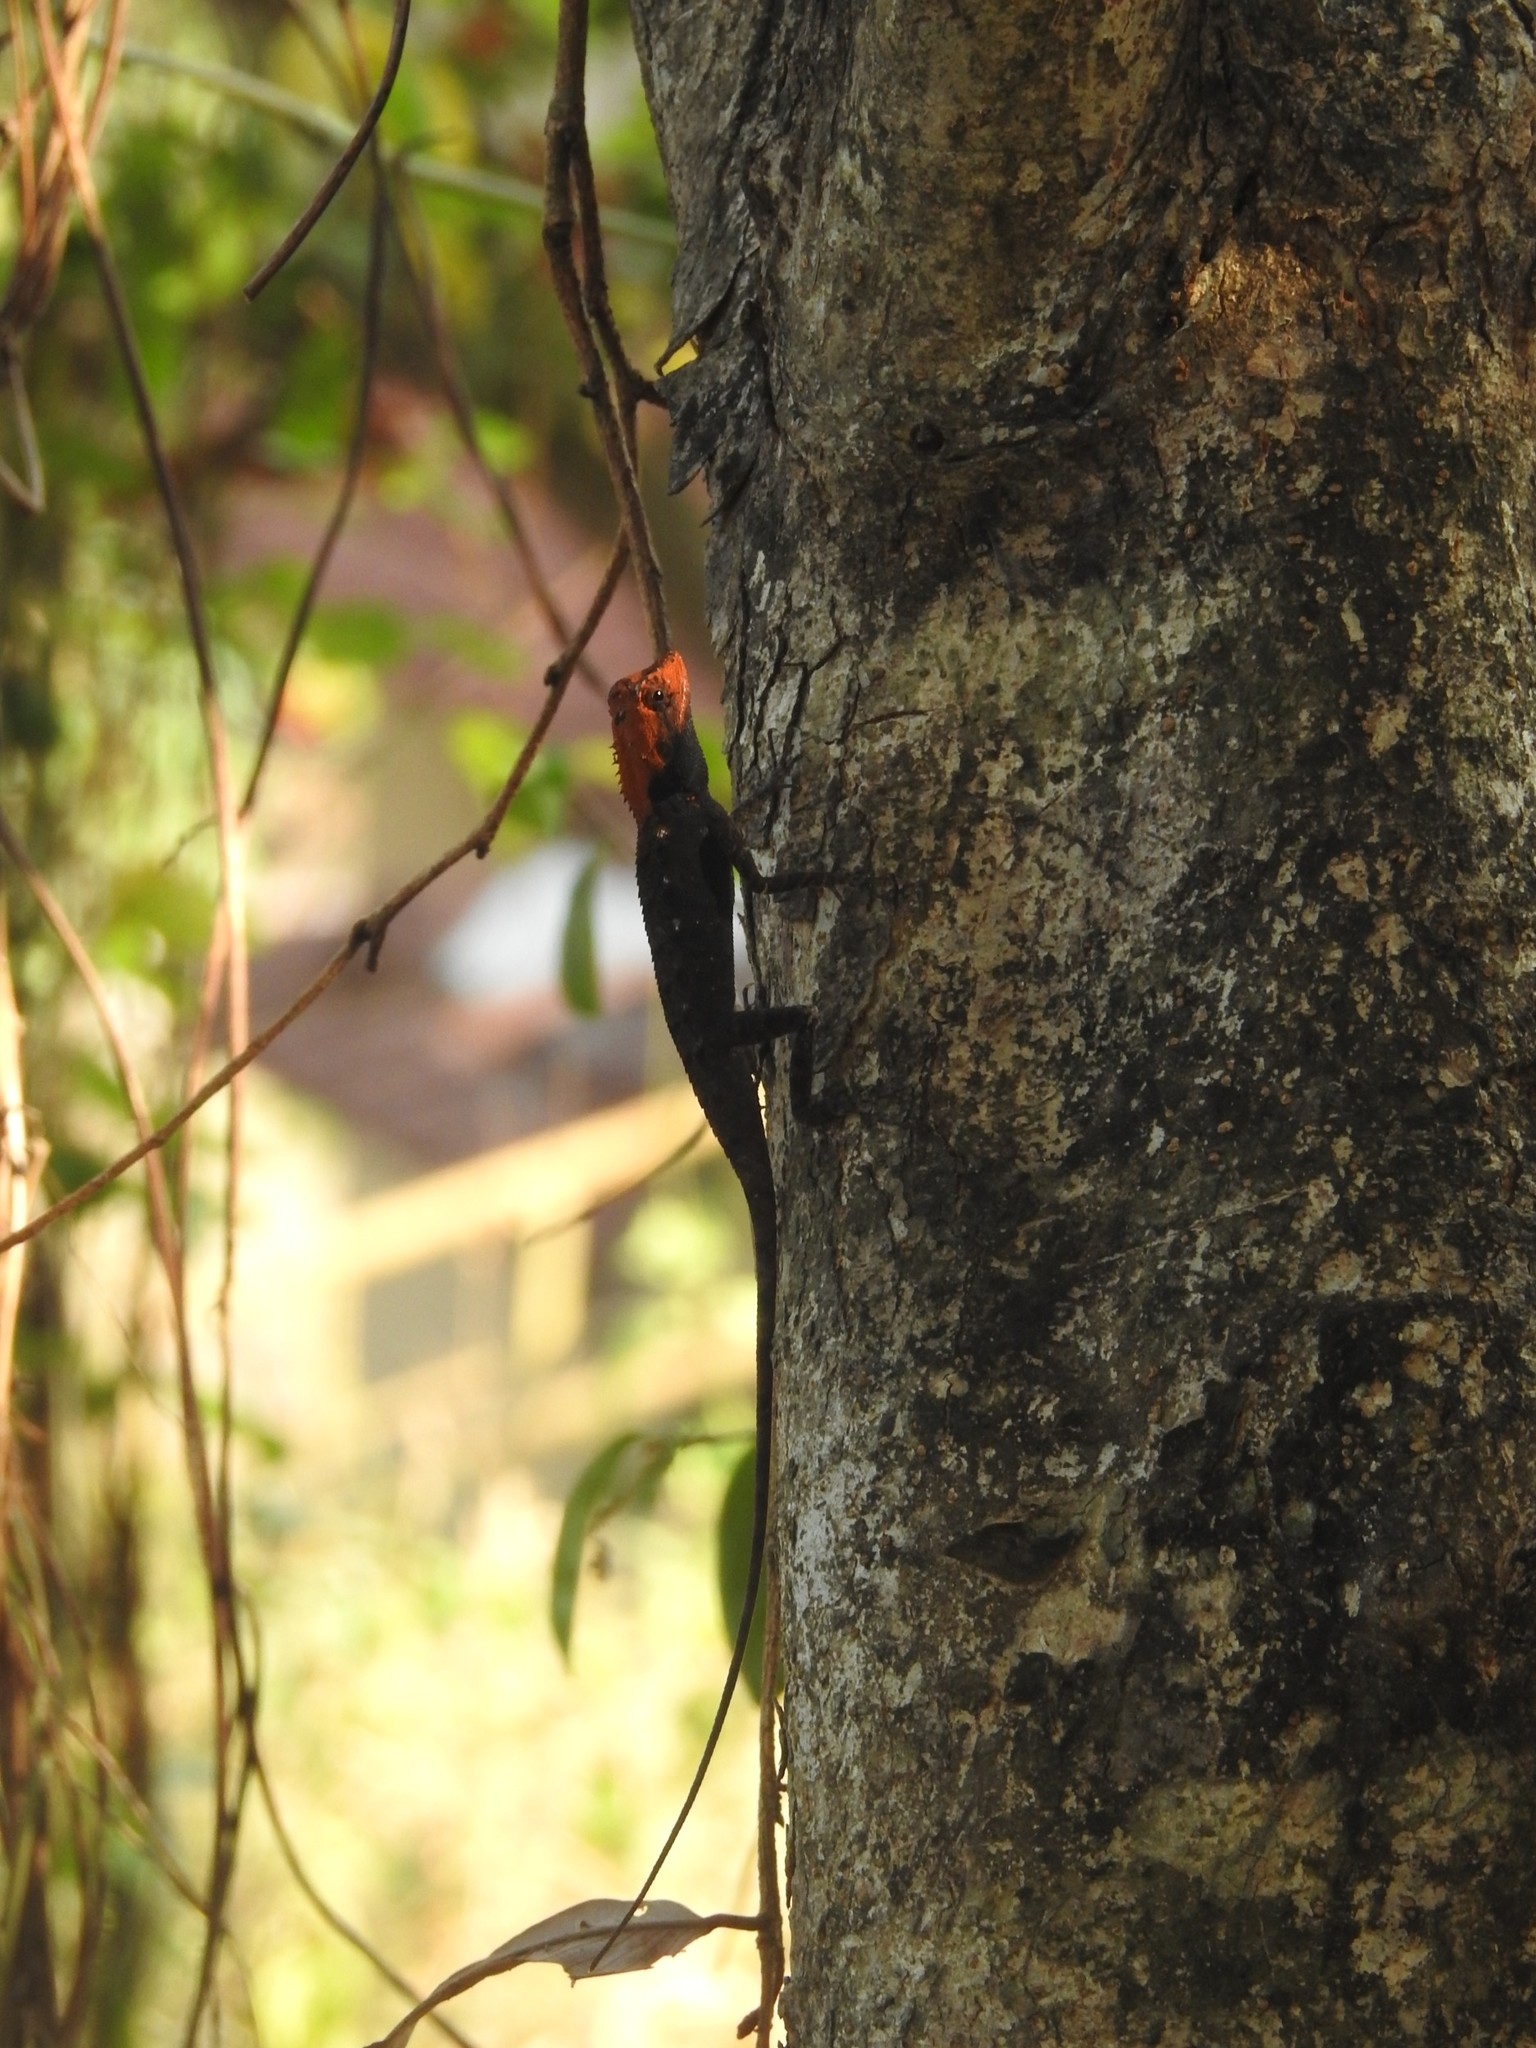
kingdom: Animalia
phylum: Chordata
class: Squamata
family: Agamidae
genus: Monilesaurus
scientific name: Monilesaurus rouxii
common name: Roux's forest lizard
